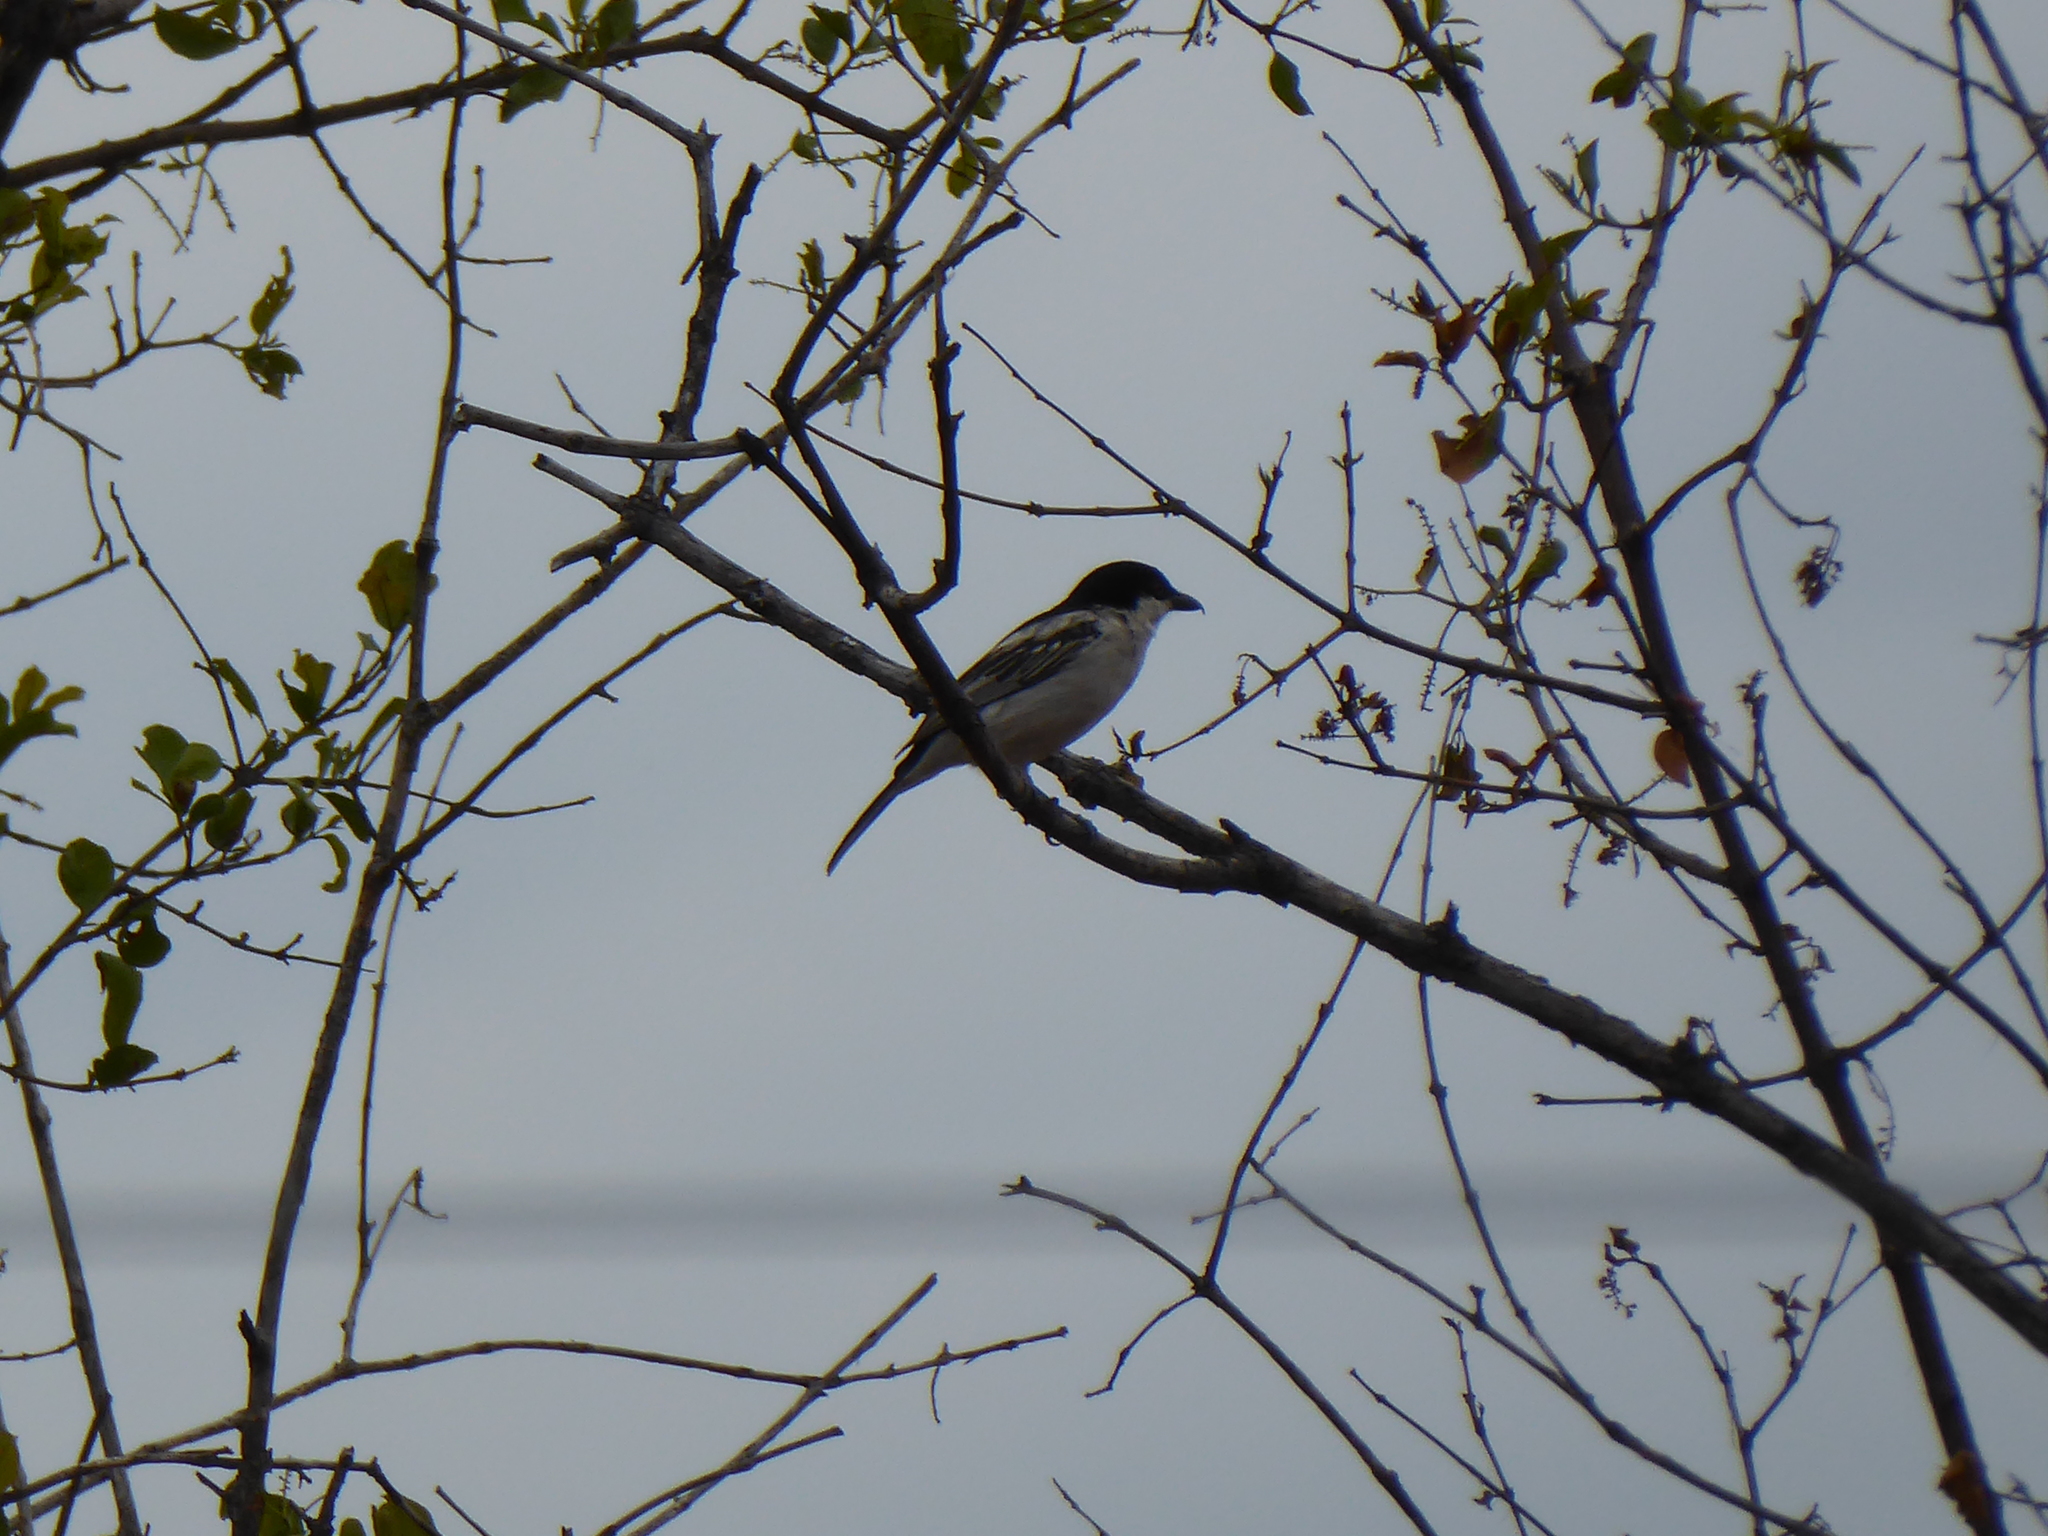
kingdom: Animalia
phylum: Chordata
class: Aves
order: Passeriformes
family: Malaconotidae
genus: Dryoscopus
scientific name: Dryoscopus cubla
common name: Black-backed puffback
